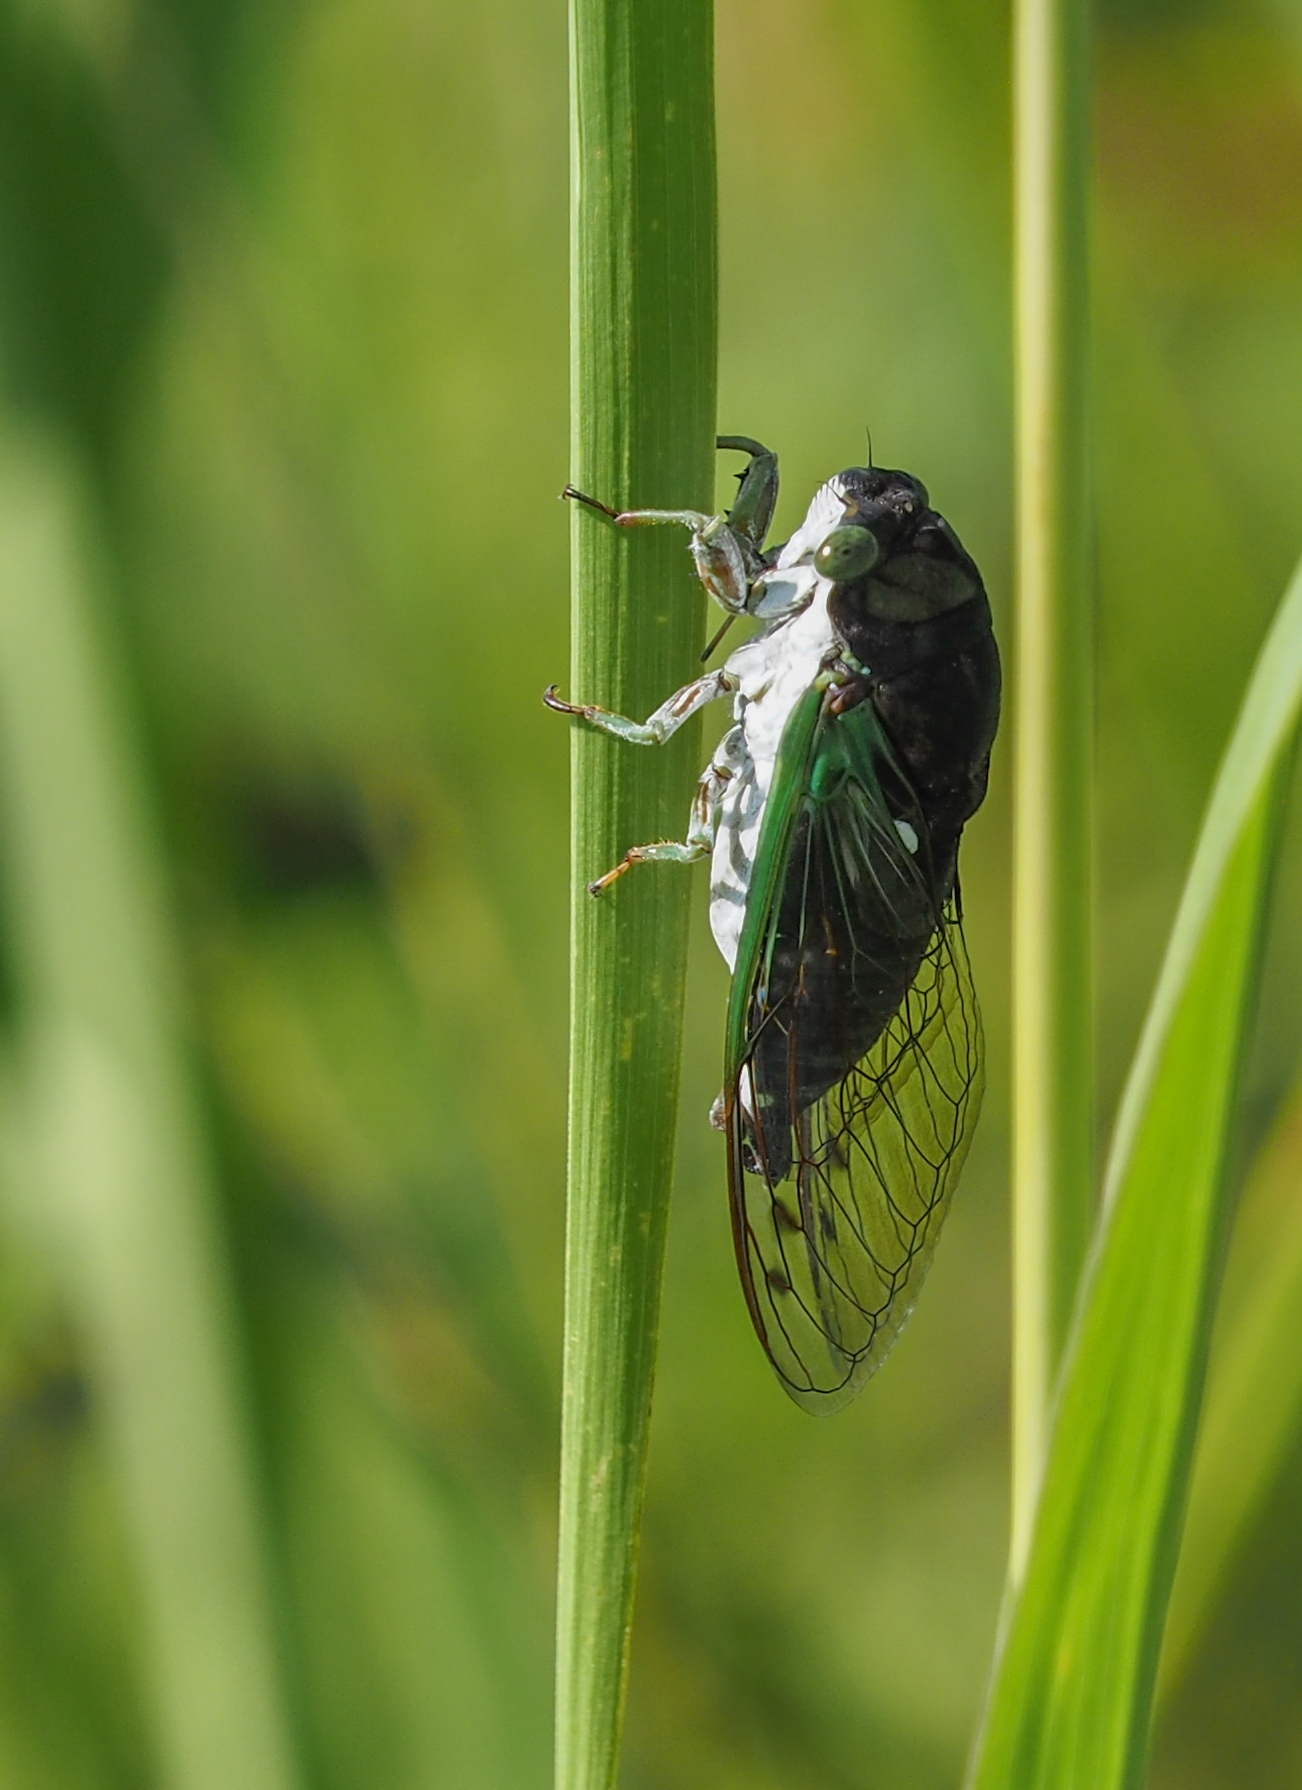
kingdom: Animalia
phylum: Arthropoda
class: Insecta
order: Hemiptera
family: Cicadidae
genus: Neotibicen
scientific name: Neotibicen tibicen
